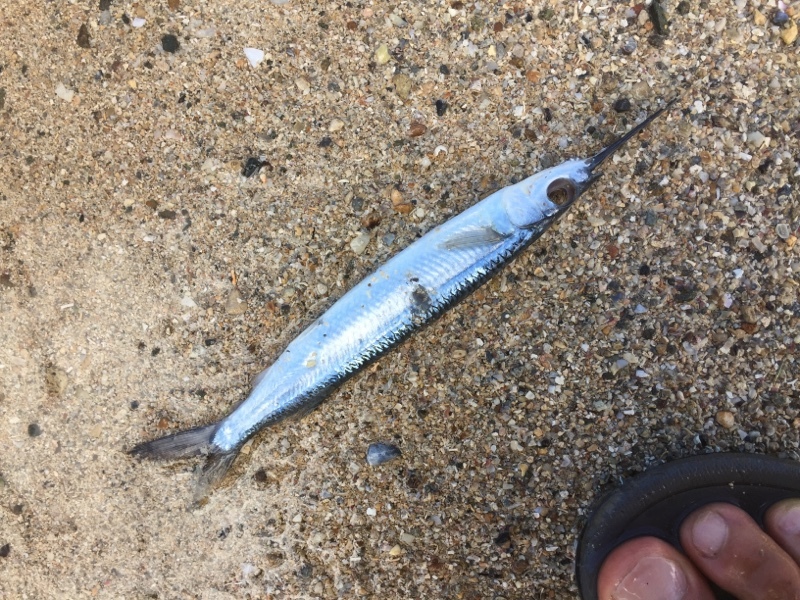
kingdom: Animalia
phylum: Chordata
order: Beloniformes
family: Hemiramphidae
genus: Hemiramphus
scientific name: Hemiramphus brasiliensis
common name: Ballyhoo
